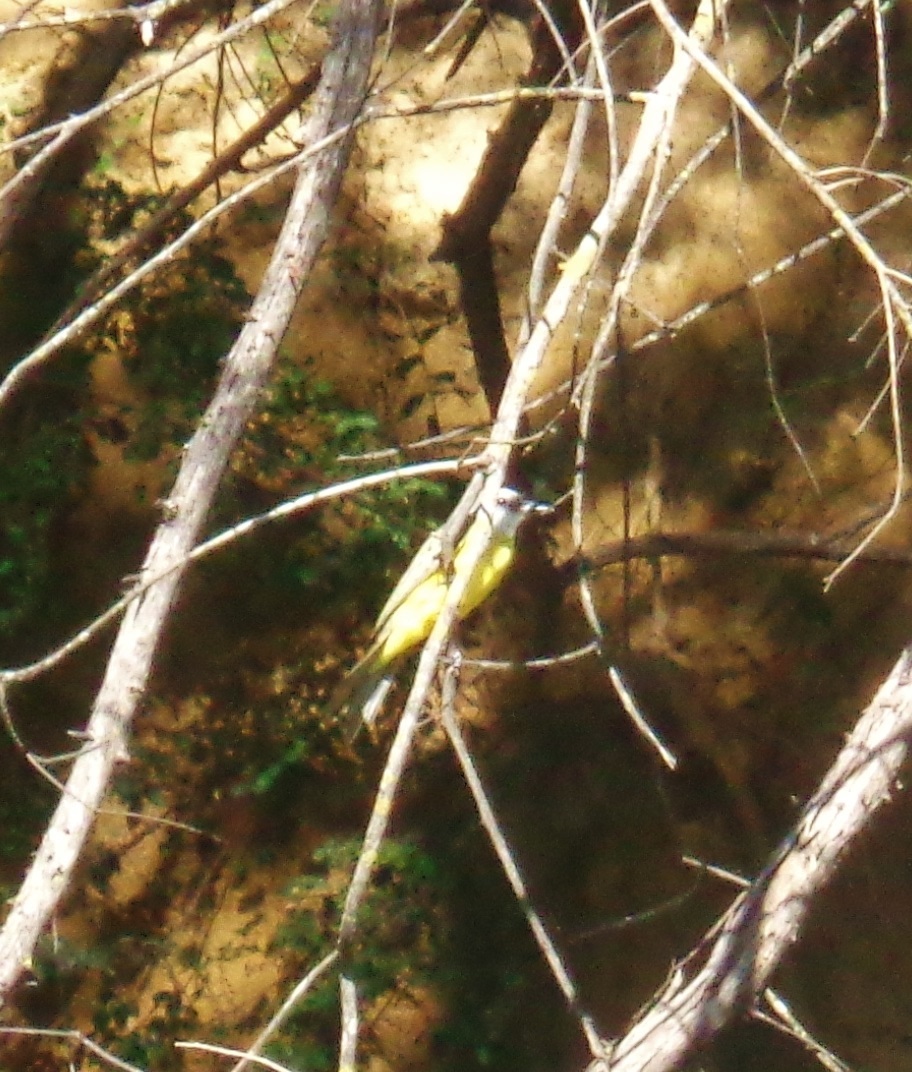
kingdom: Animalia
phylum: Chordata
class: Aves
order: Passeriformes
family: Tyrannidae
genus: Pitangus
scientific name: Pitangus sulphuratus
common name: Great kiskadee
